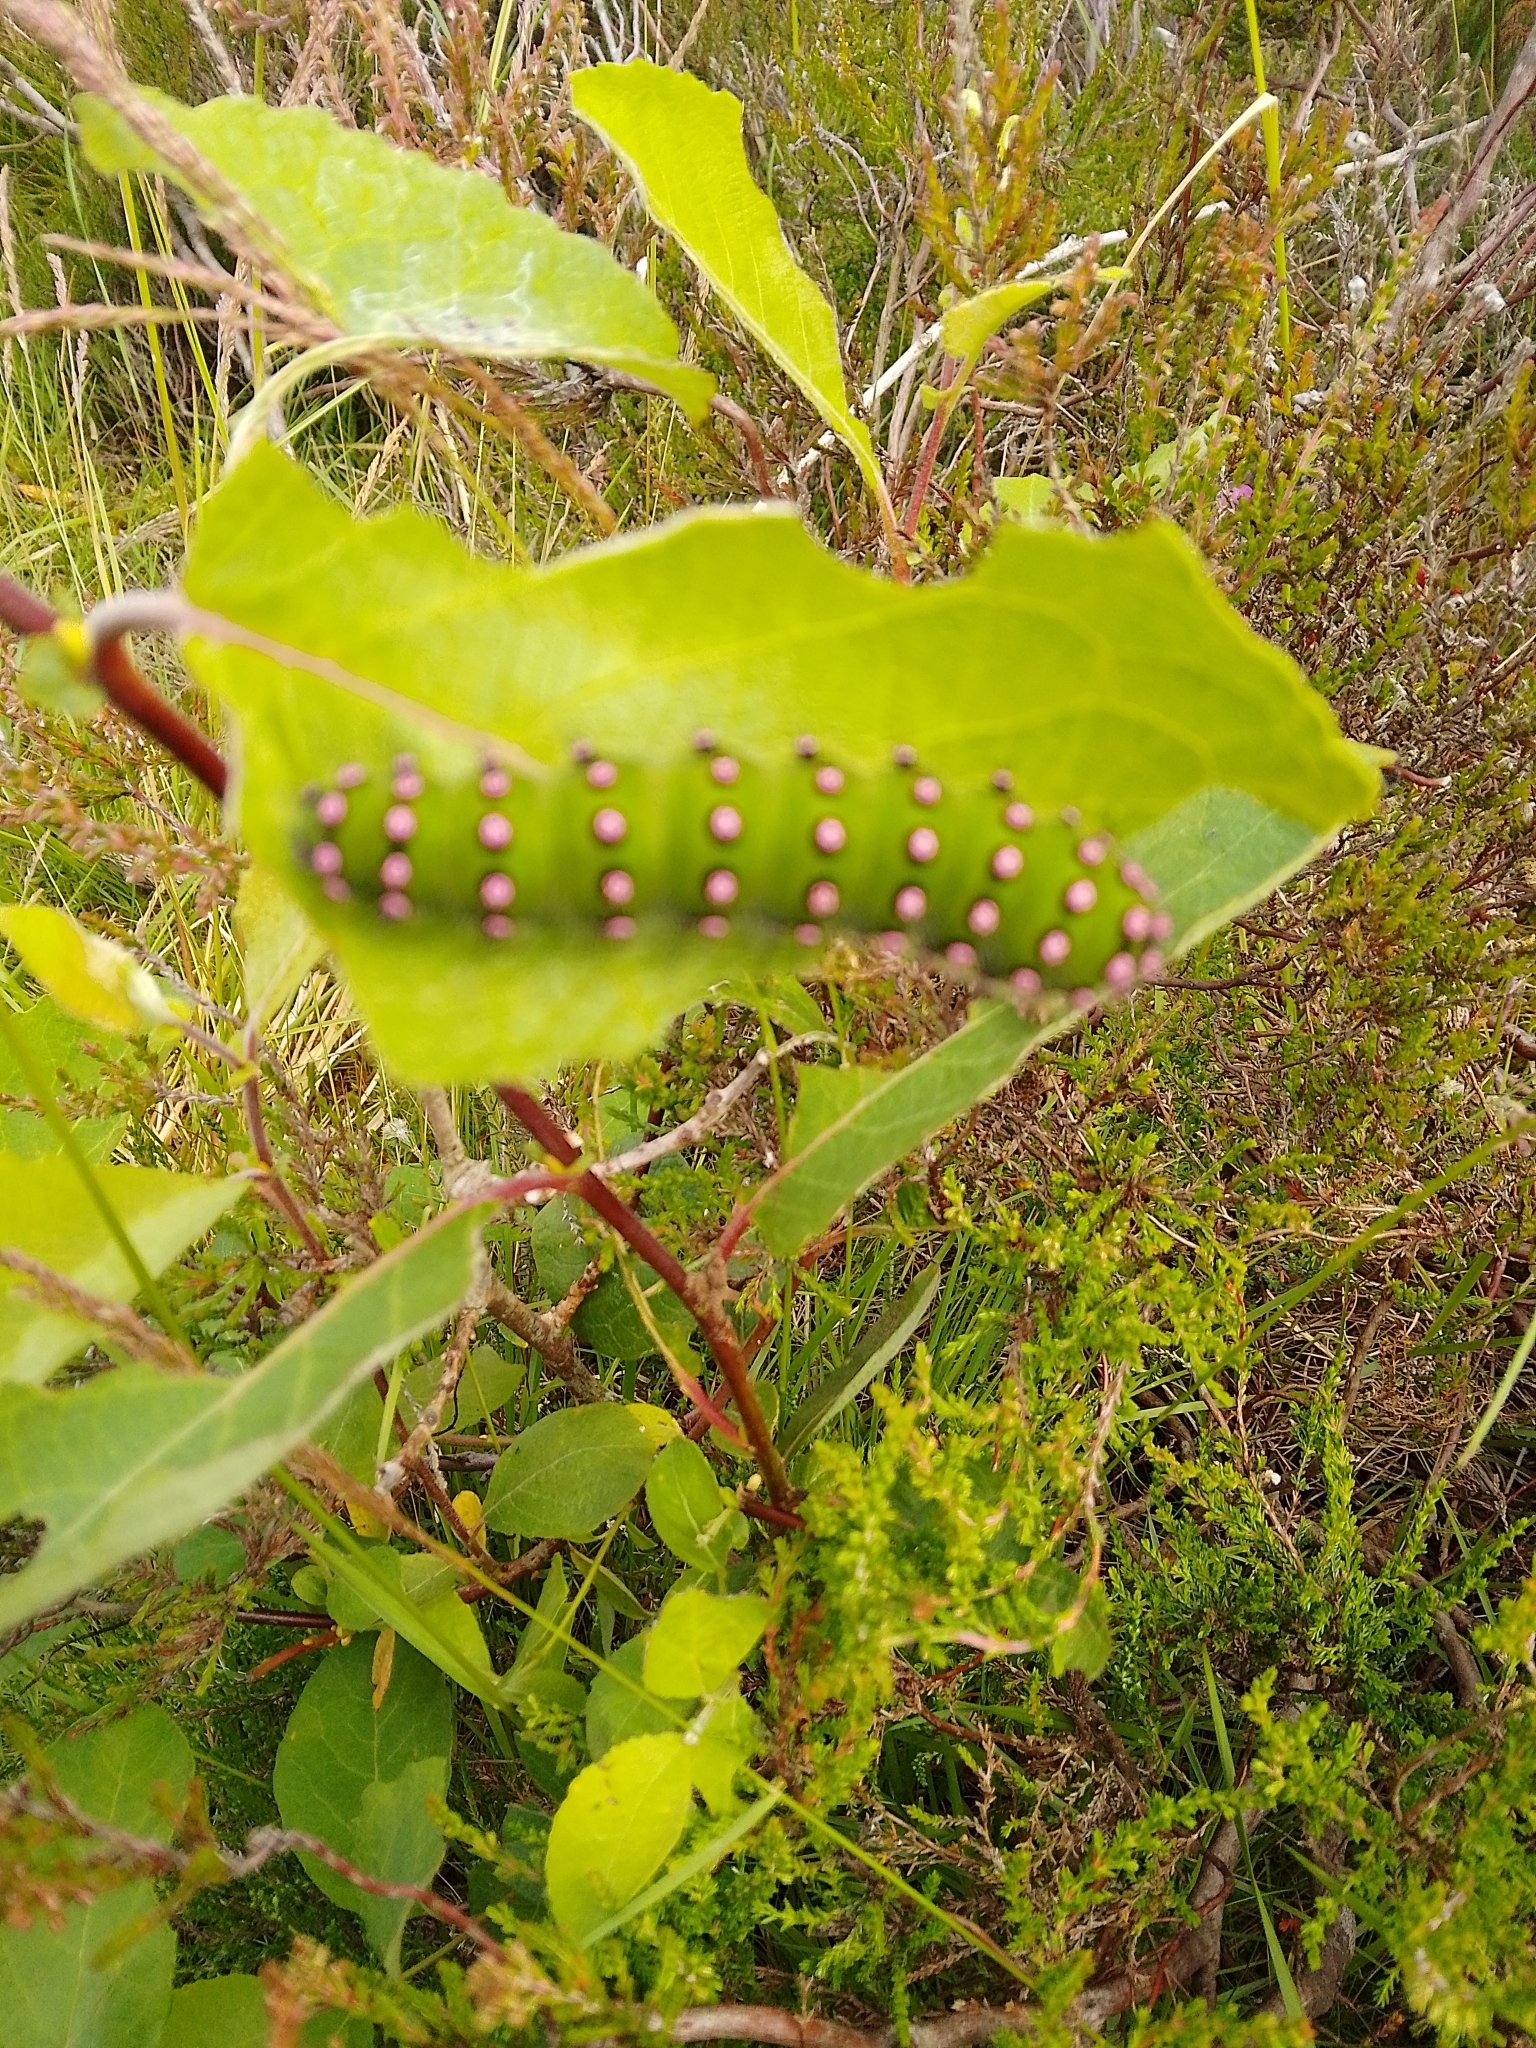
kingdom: Animalia
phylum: Arthropoda
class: Insecta
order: Lepidoptera
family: Saturniidae
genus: Saturnia
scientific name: Saturnia pavonia
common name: Emperor moth
